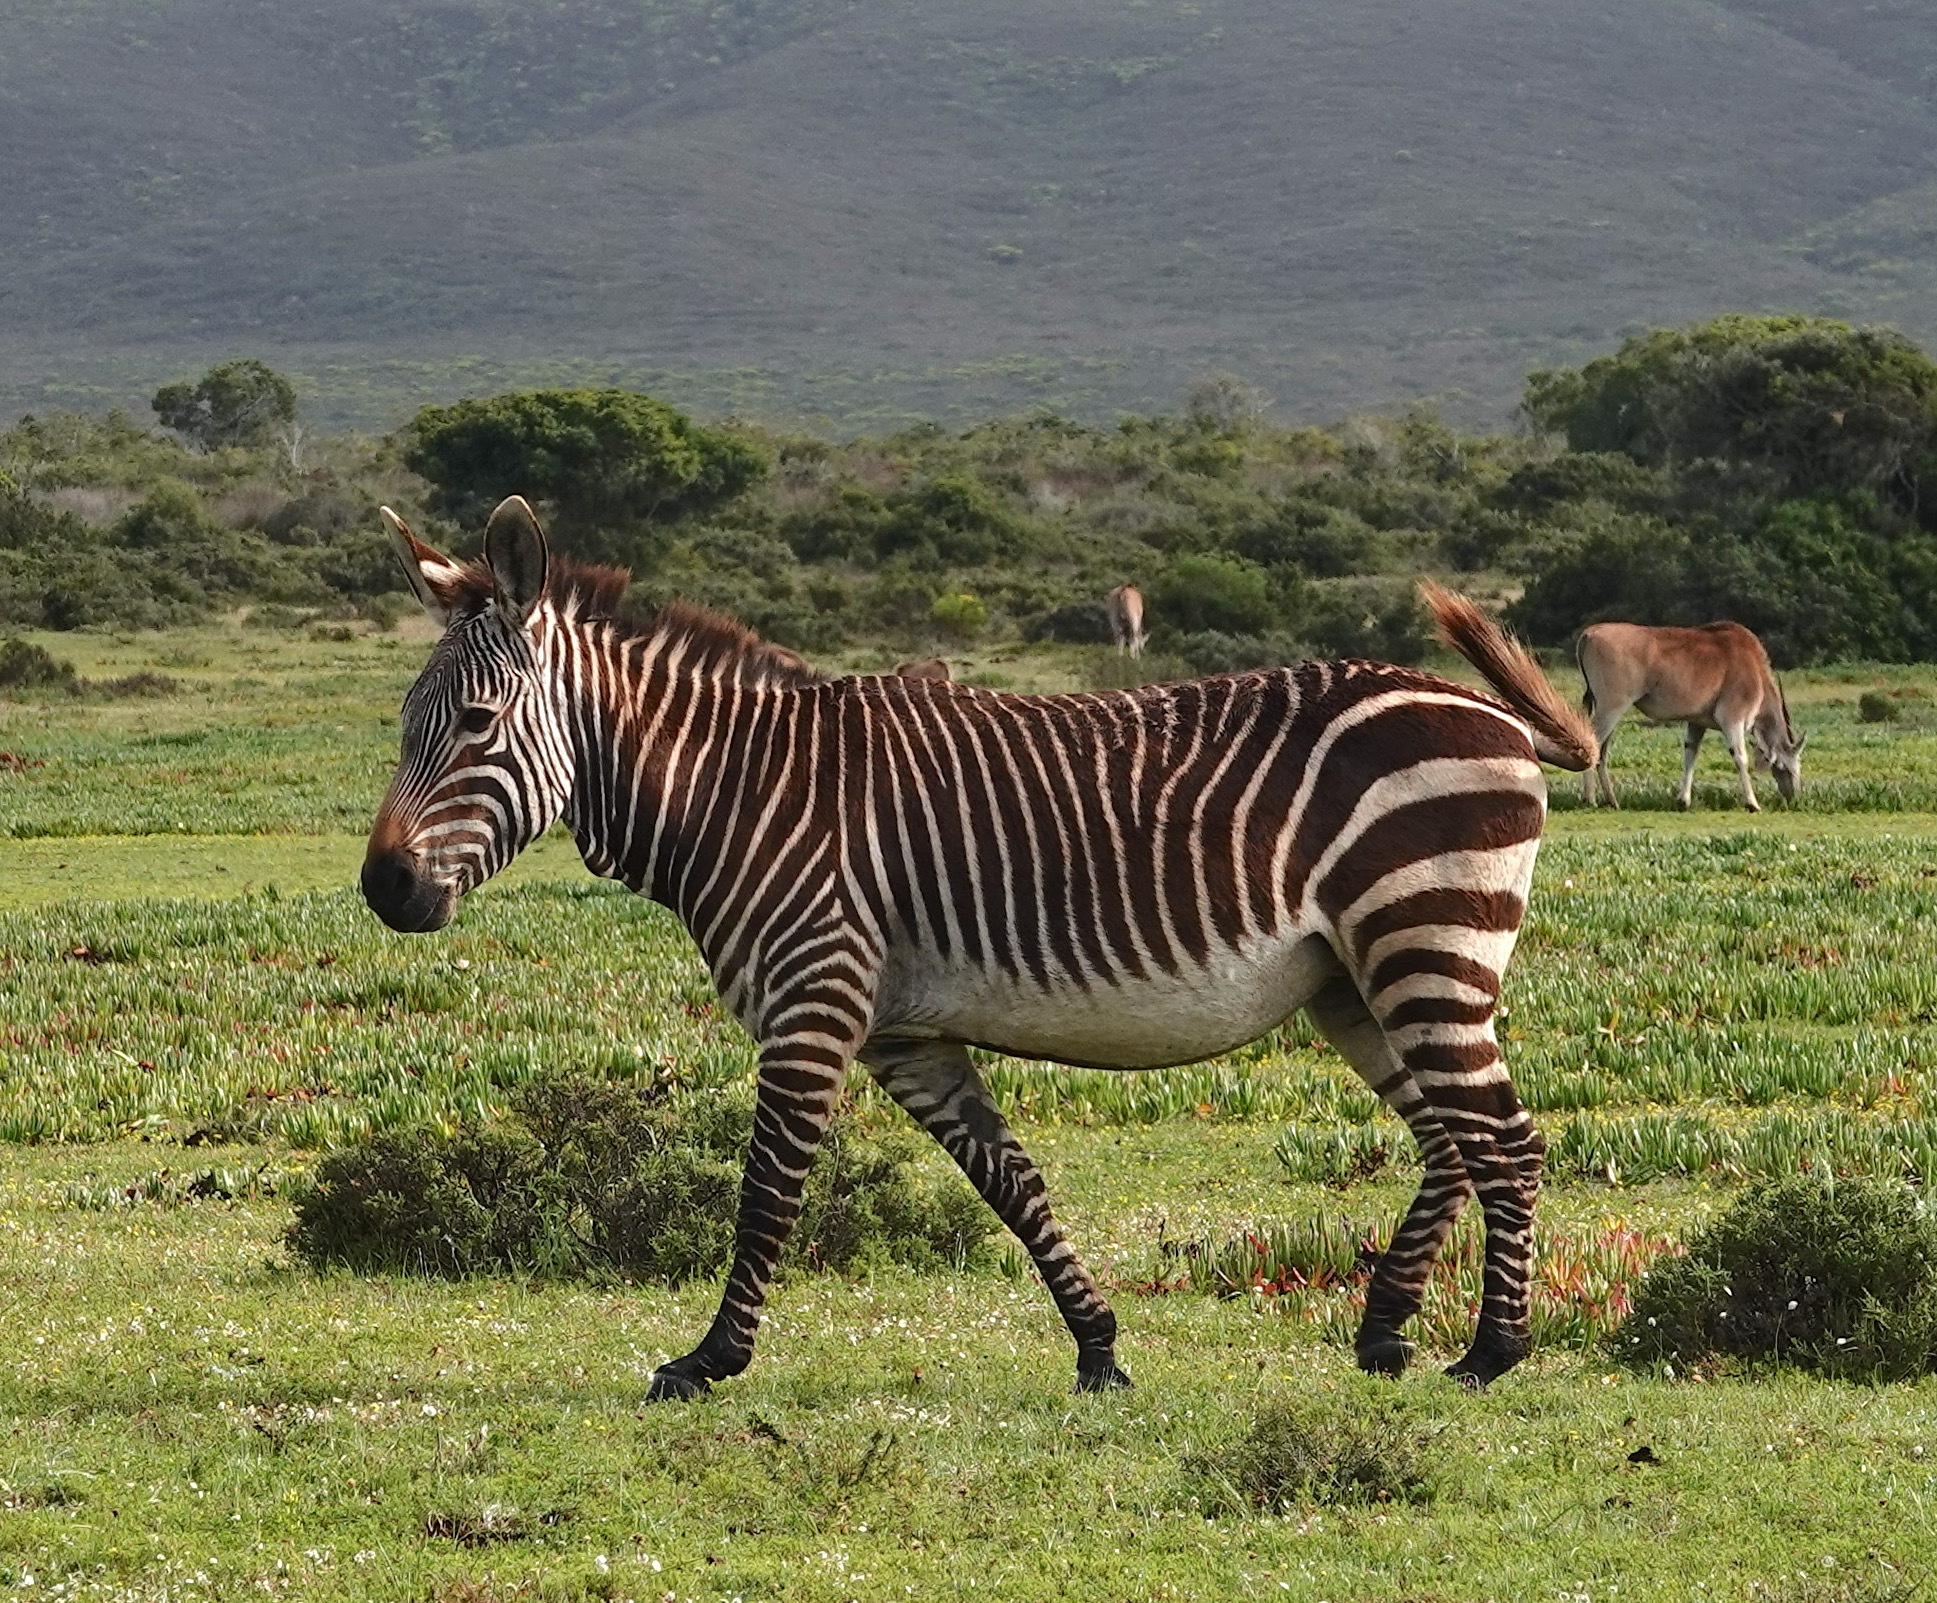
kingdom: Animalia
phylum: Chordata
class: Mammalia
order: Perissodactyla
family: Equidae
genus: Equus
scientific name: Equus zebra
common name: Mountain zebra
